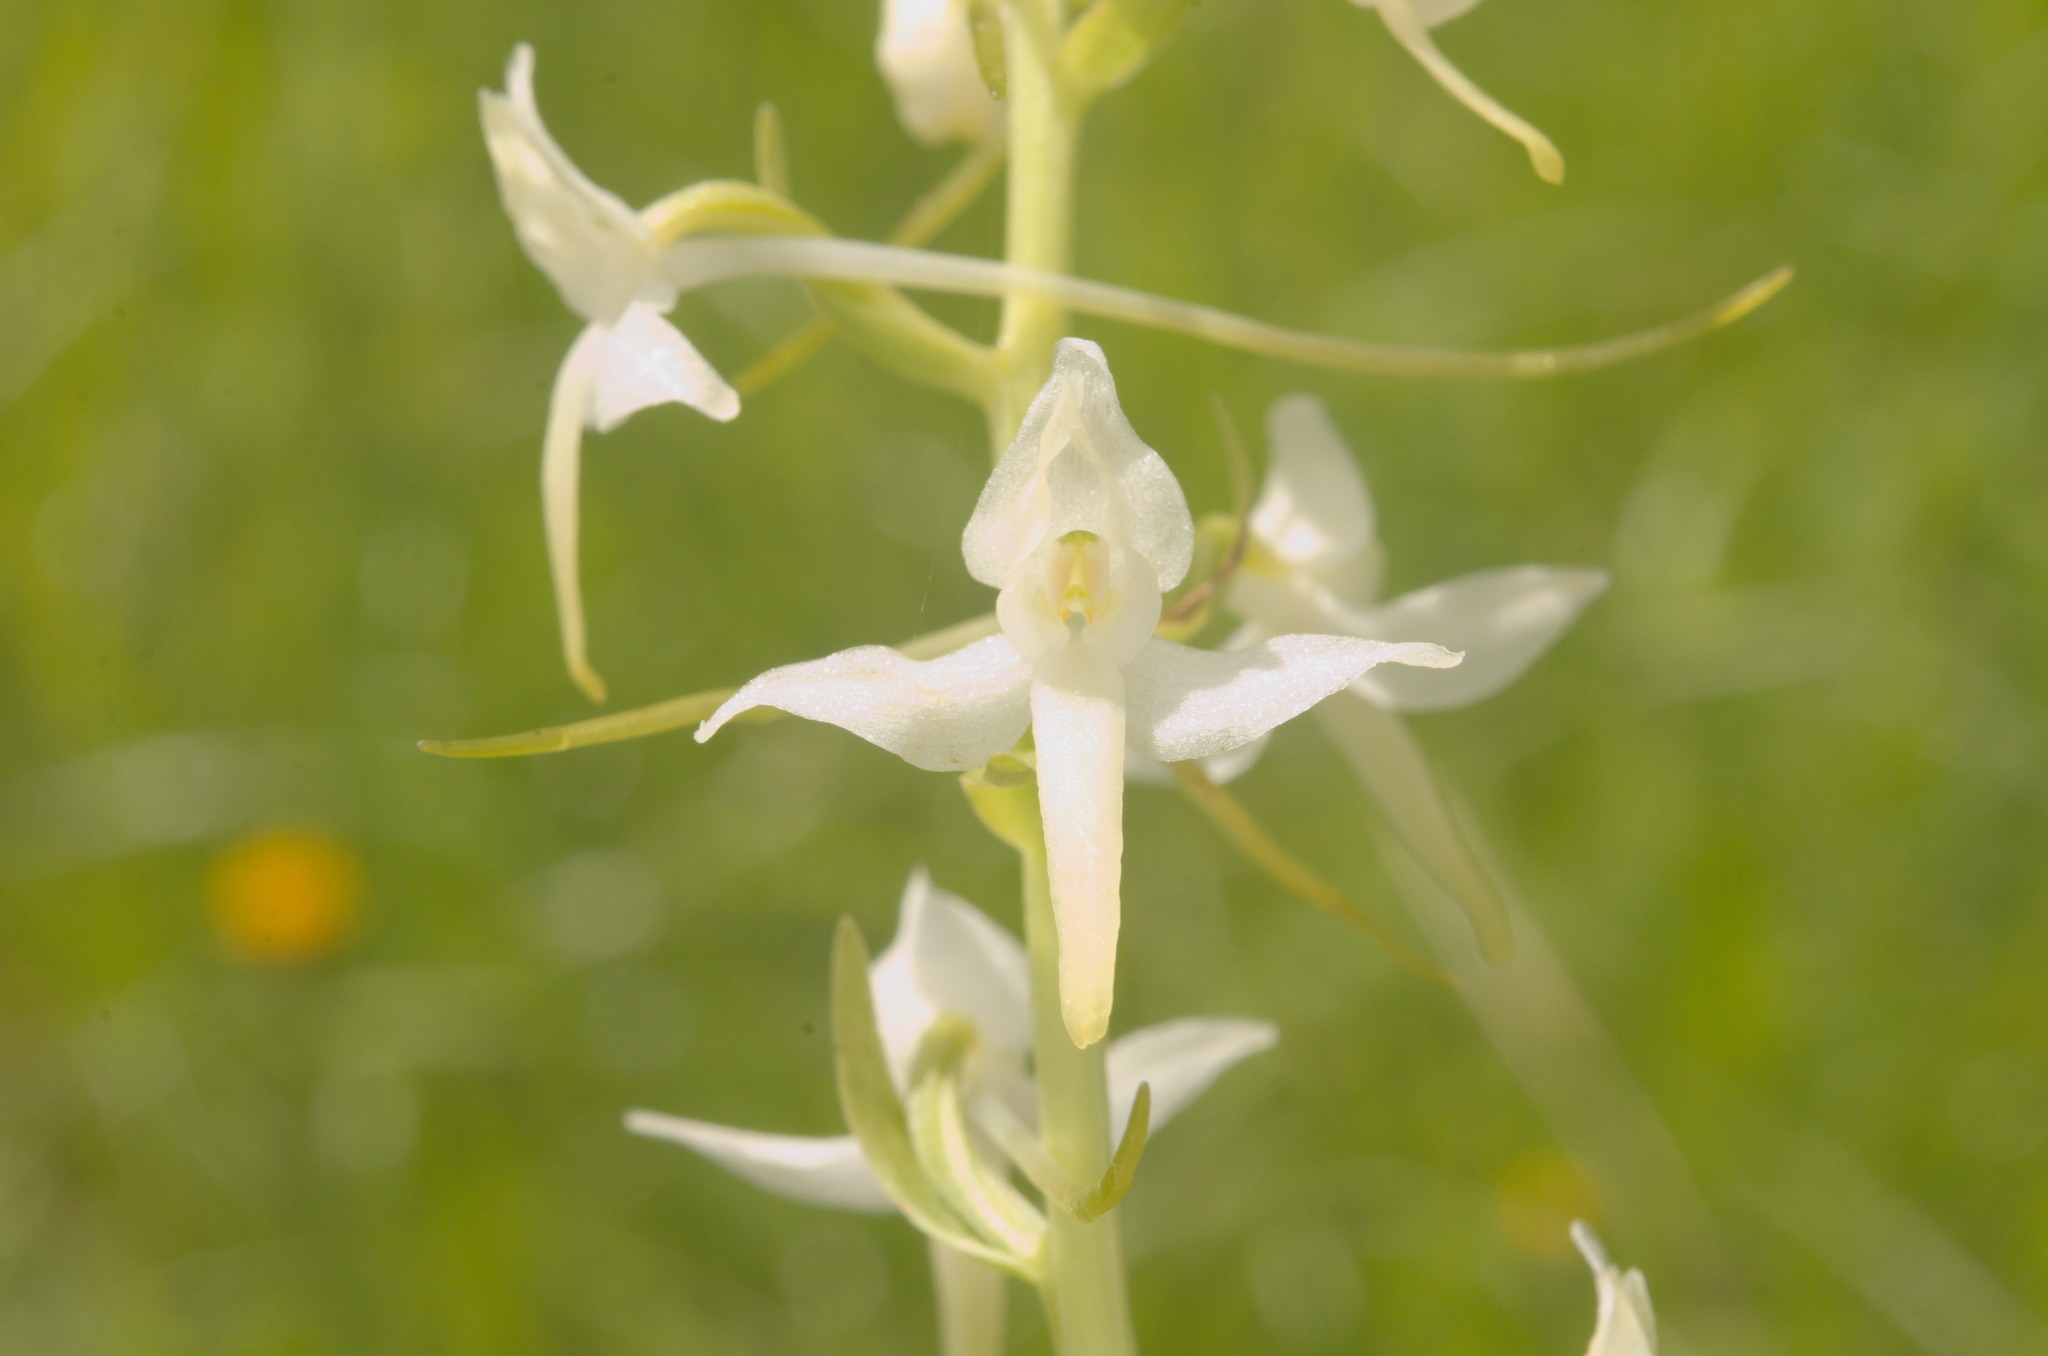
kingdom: Plantae
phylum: Tracheophyta
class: Liliopsida
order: Asparagales
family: Orchidaceae
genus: Platanthera
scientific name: Platanthera bifolia
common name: Lesser butterfly-orchid
